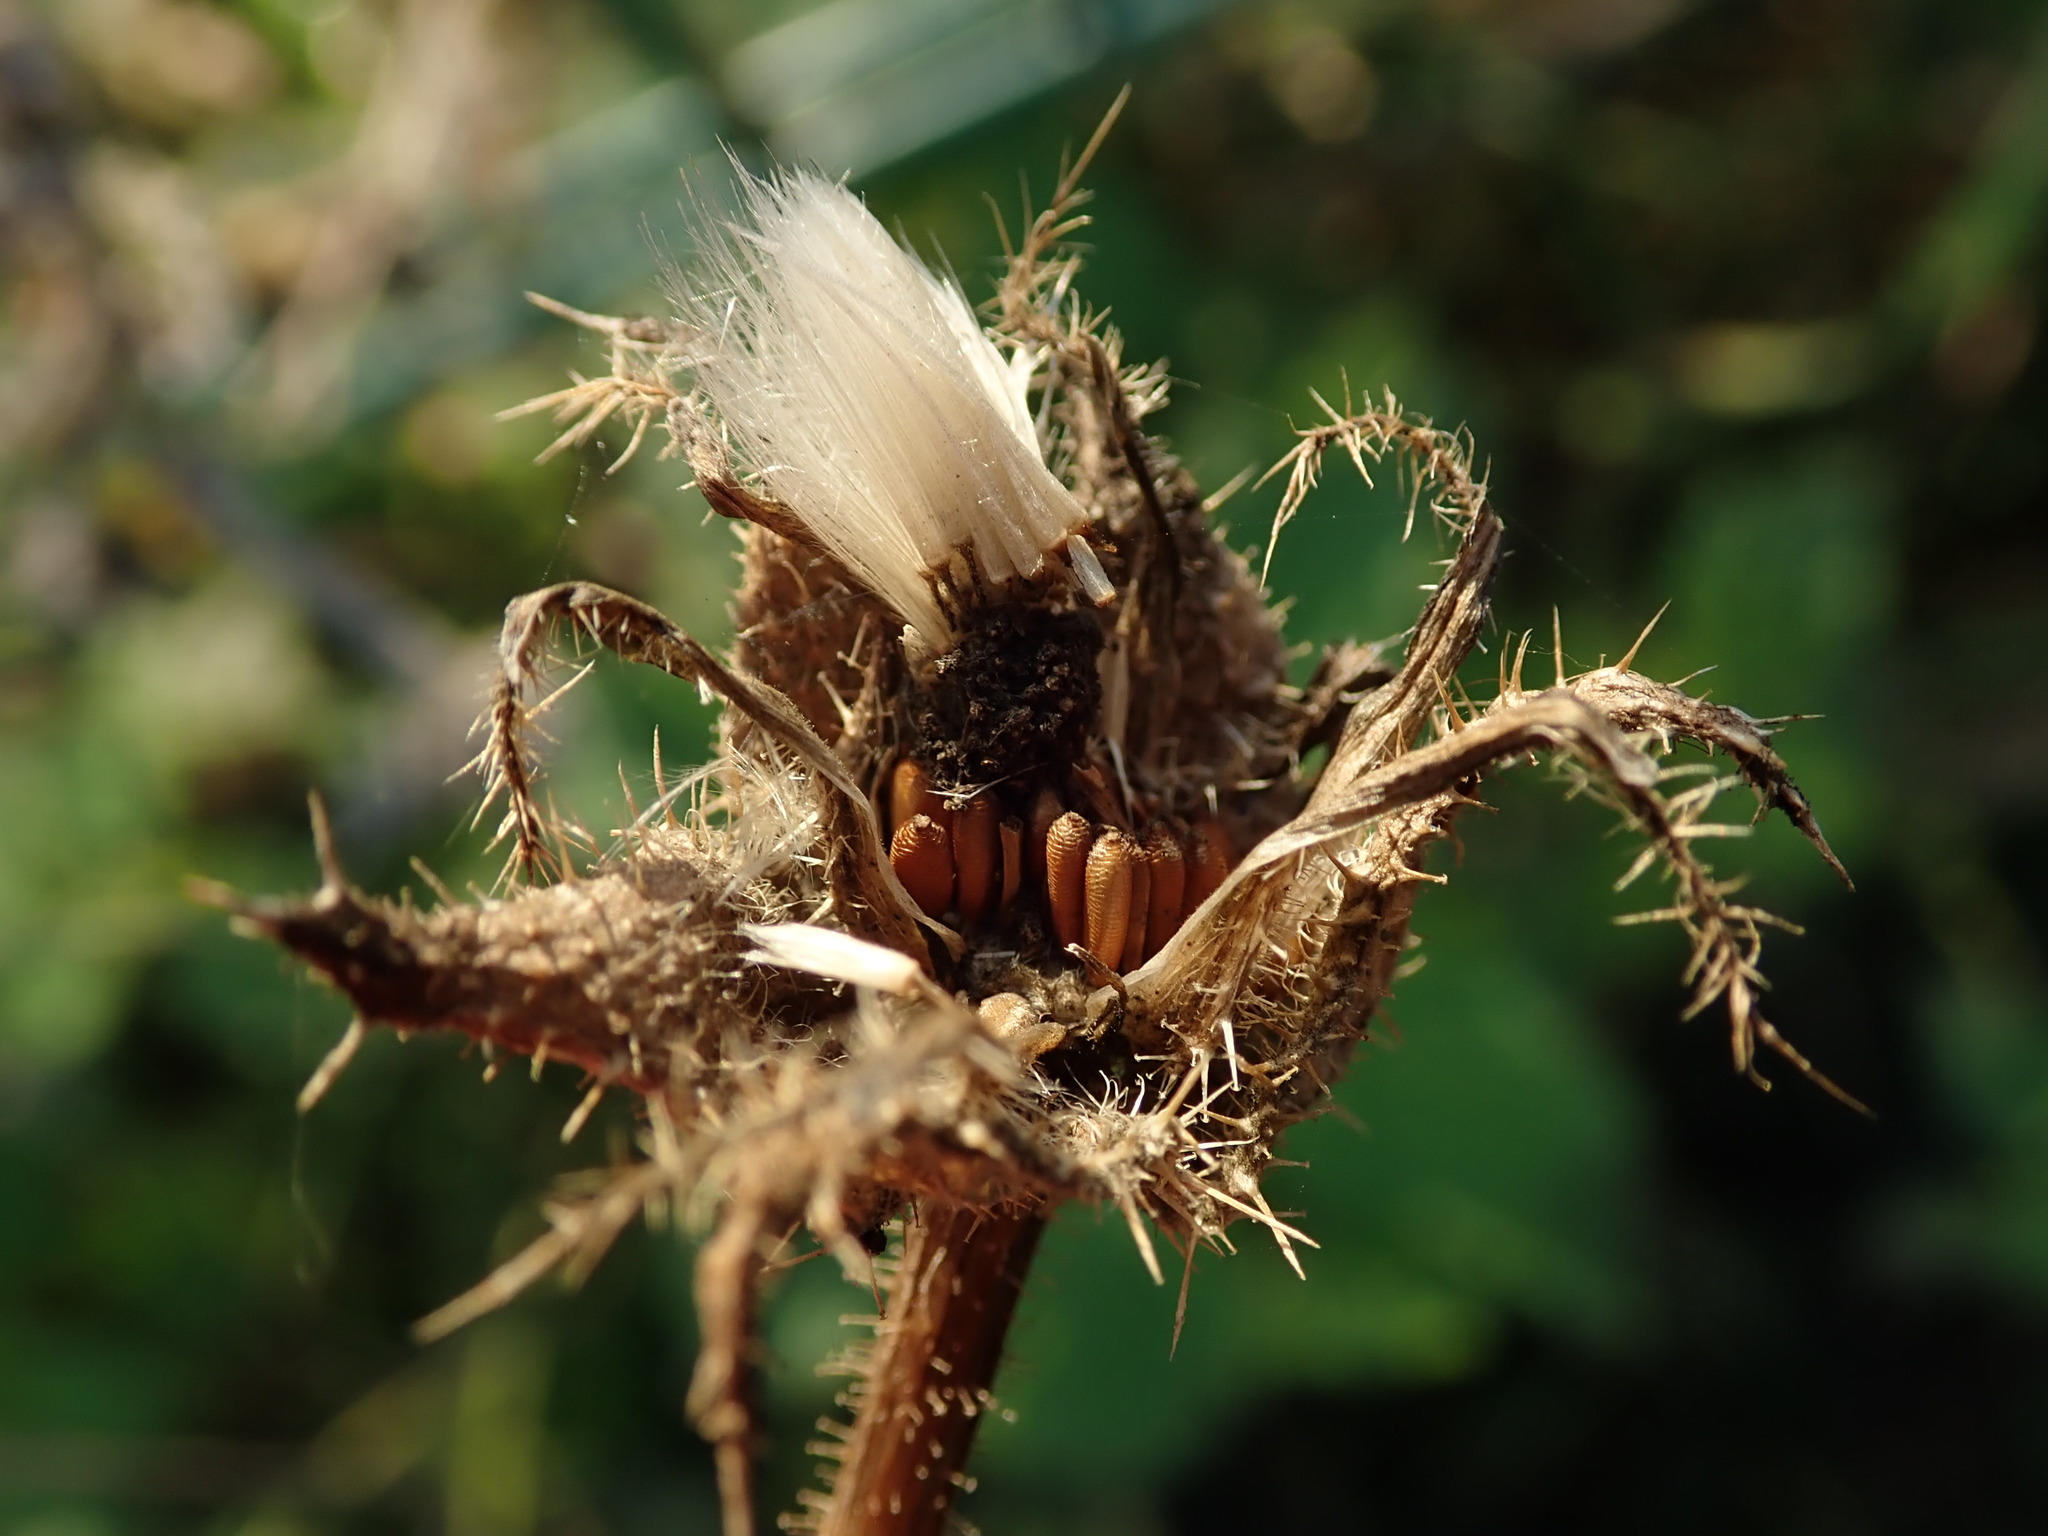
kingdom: Plantae
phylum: Tracheophyta
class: Magnoliopsida
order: Asterales
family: Asteraceae
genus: Helminthotheca
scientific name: Helminthotheca echioides
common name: Ox-tongue
